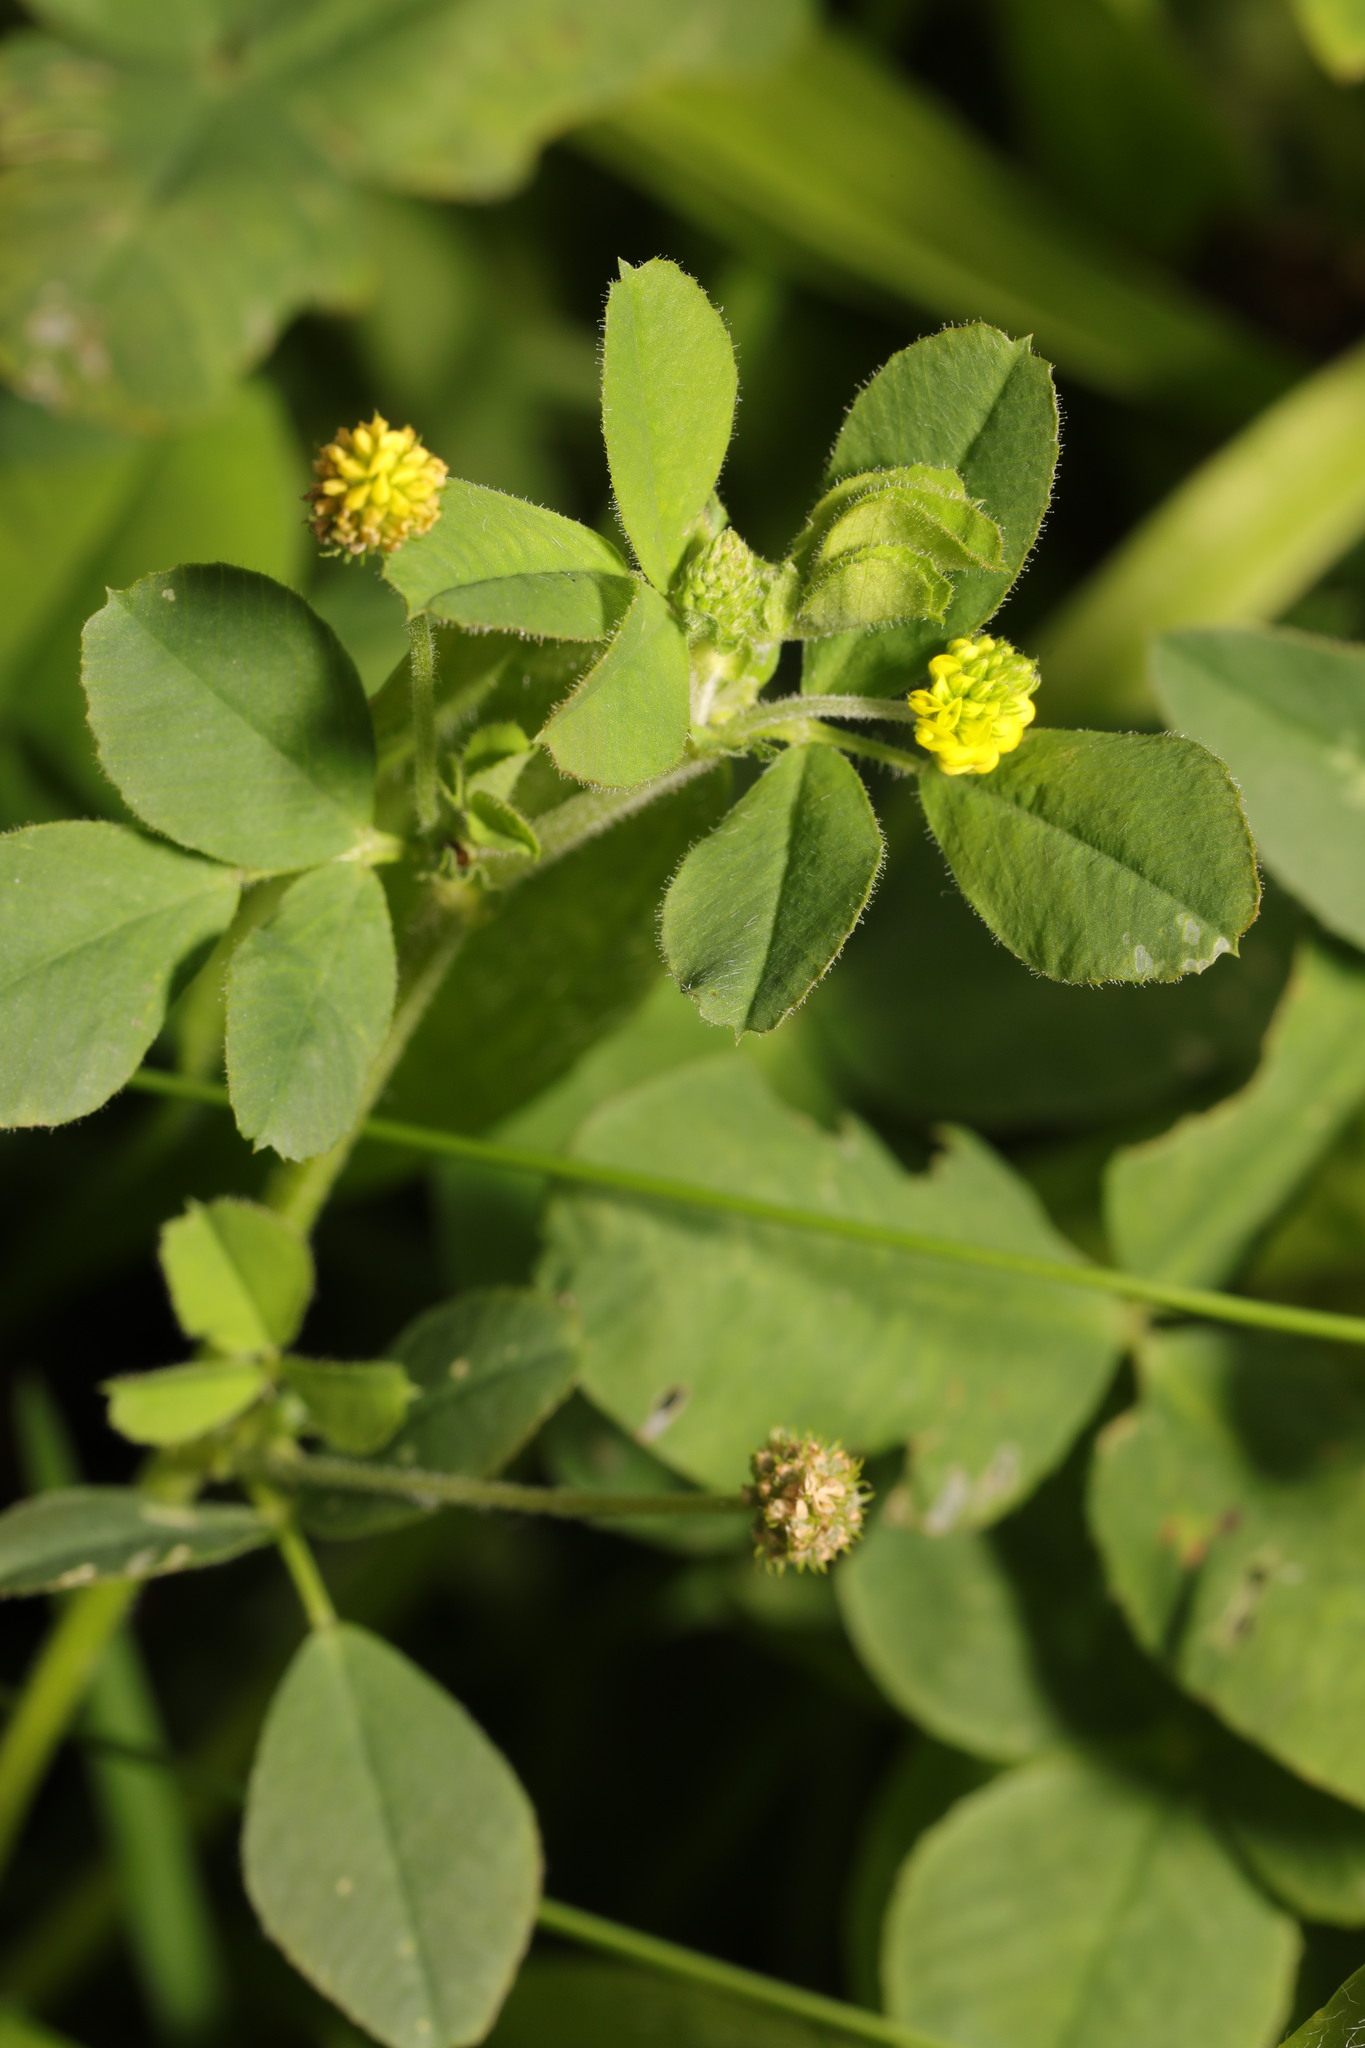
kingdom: Plantae
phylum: Tracheophyta
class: Magnoliopsida
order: Fabales
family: Fabaceae
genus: Medicago
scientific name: Medicago lupulina
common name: Black medick
